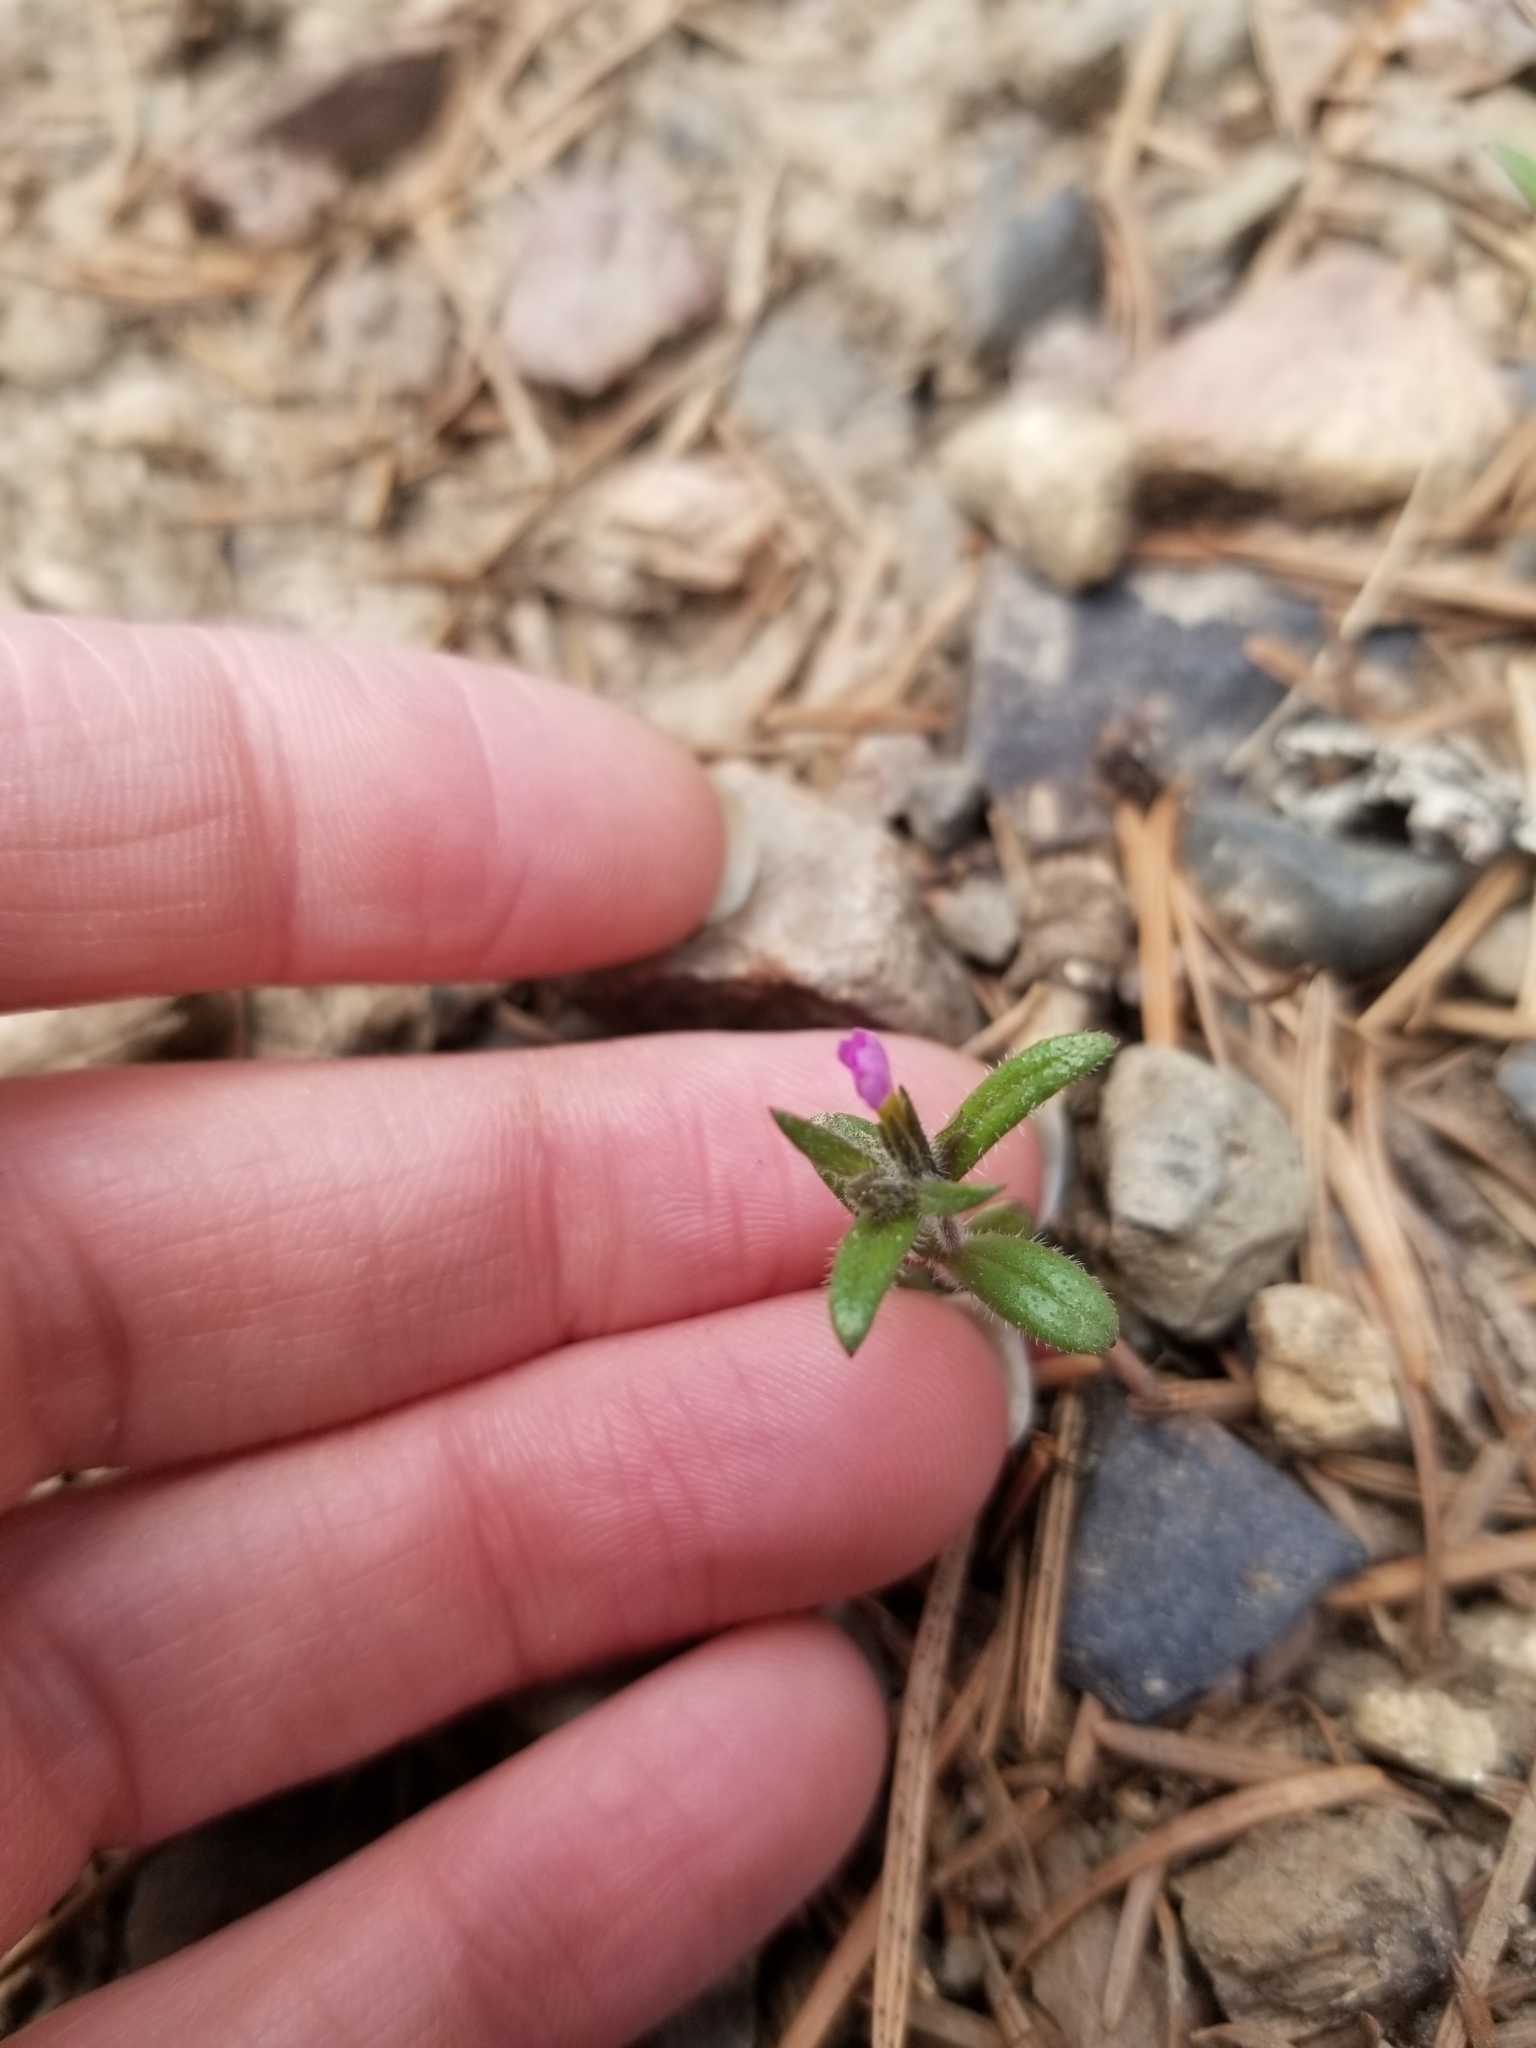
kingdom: Plantae
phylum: Tracheophyta
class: Magnoliopsida
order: Ericales
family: Polemoniaceae
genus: Phlox
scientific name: Phlox gracilis
